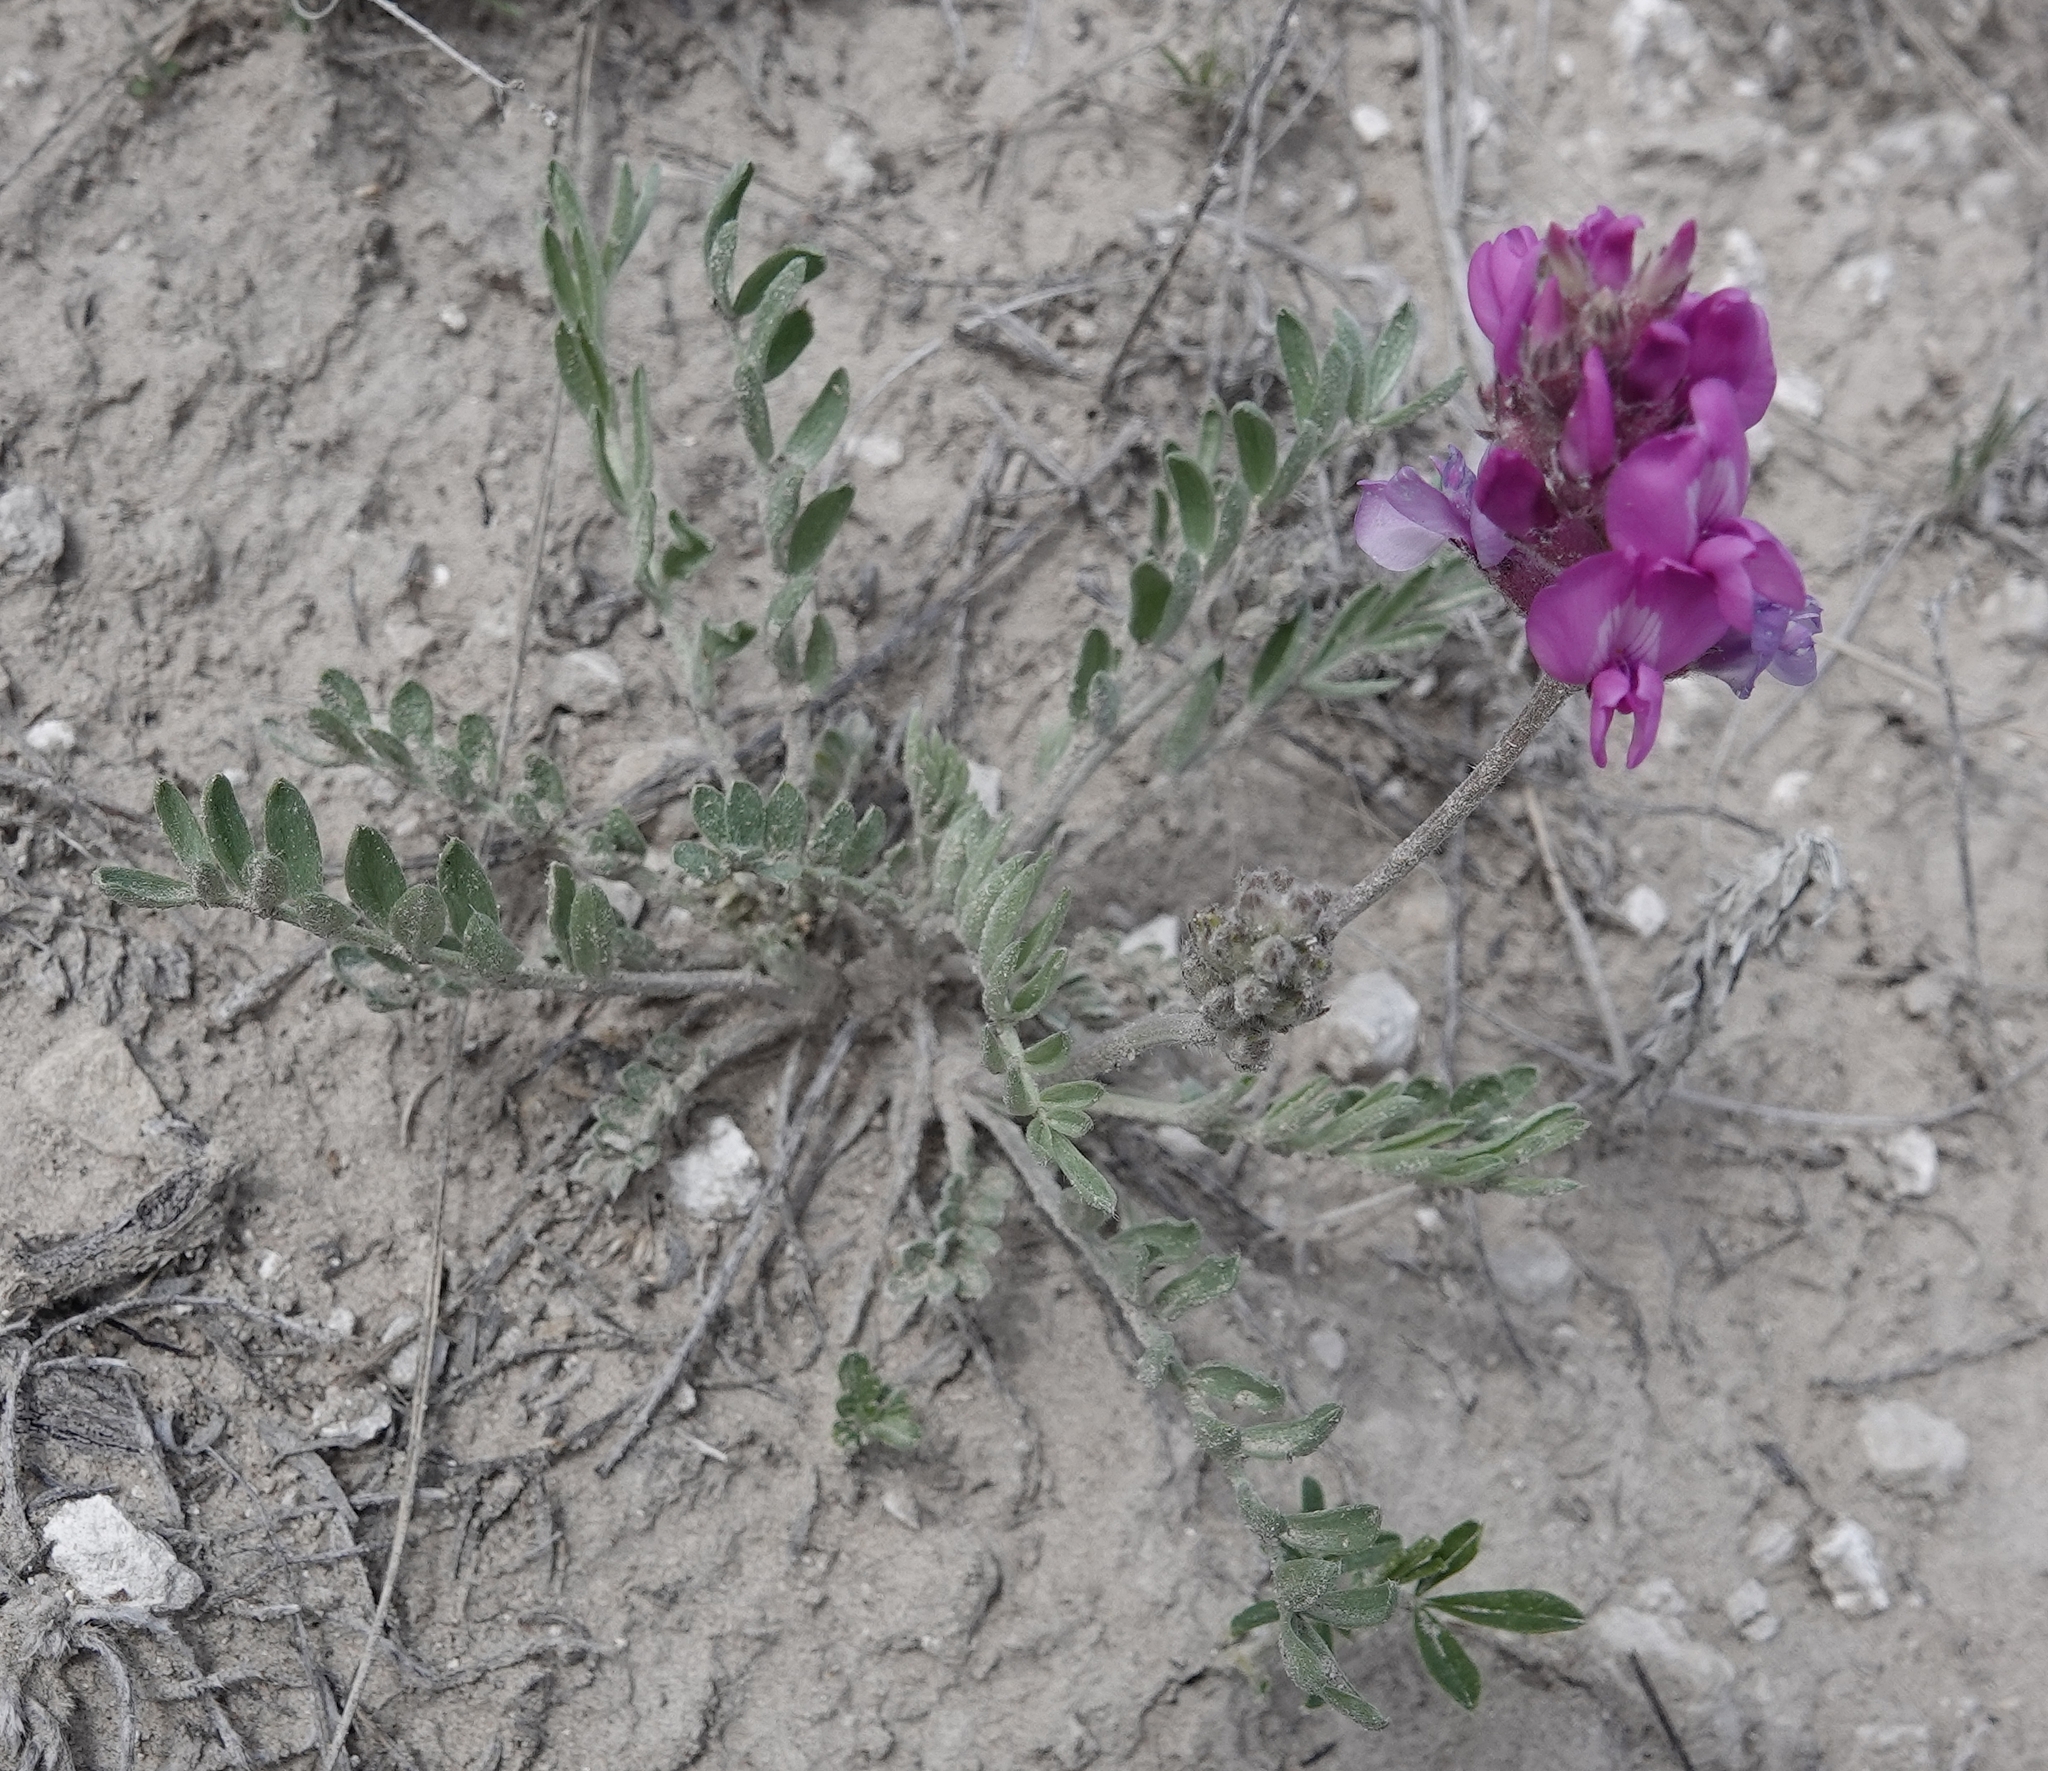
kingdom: Plantae
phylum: Tracheophyta
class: Magnoliopsida
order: Fabales
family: Fabaceae
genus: Oxytropis
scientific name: Oxytropis lambertii
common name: Purple locoweed
